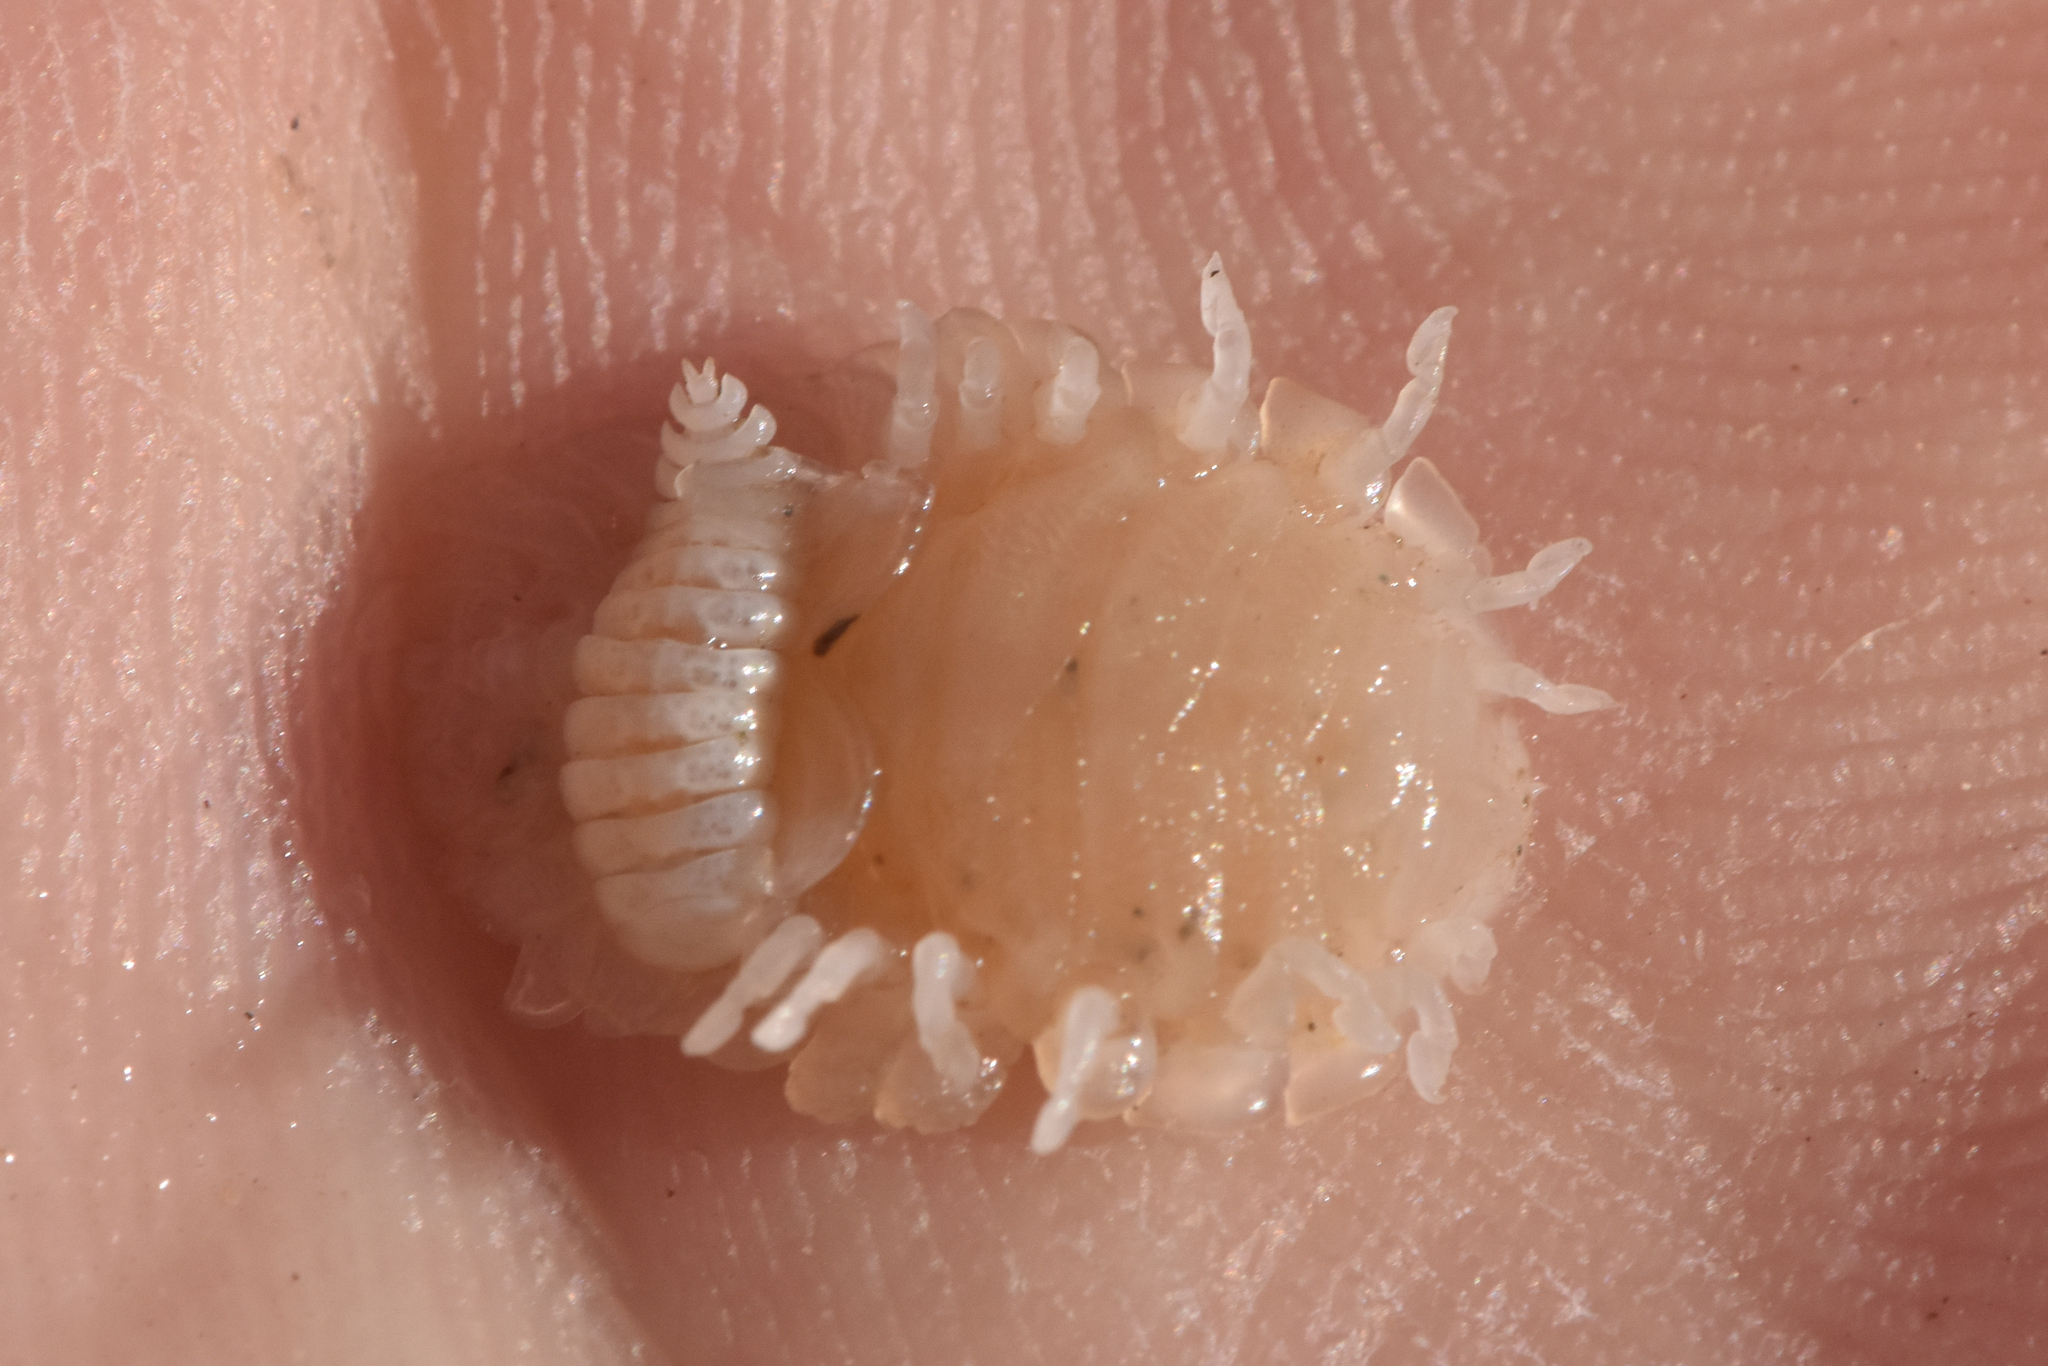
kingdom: Animalia
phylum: Arthropoda
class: Malacostraca
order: Isopoda
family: Bopyridae
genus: Orthione
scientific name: Orthione griffenis
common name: Upogebia gill isopod
